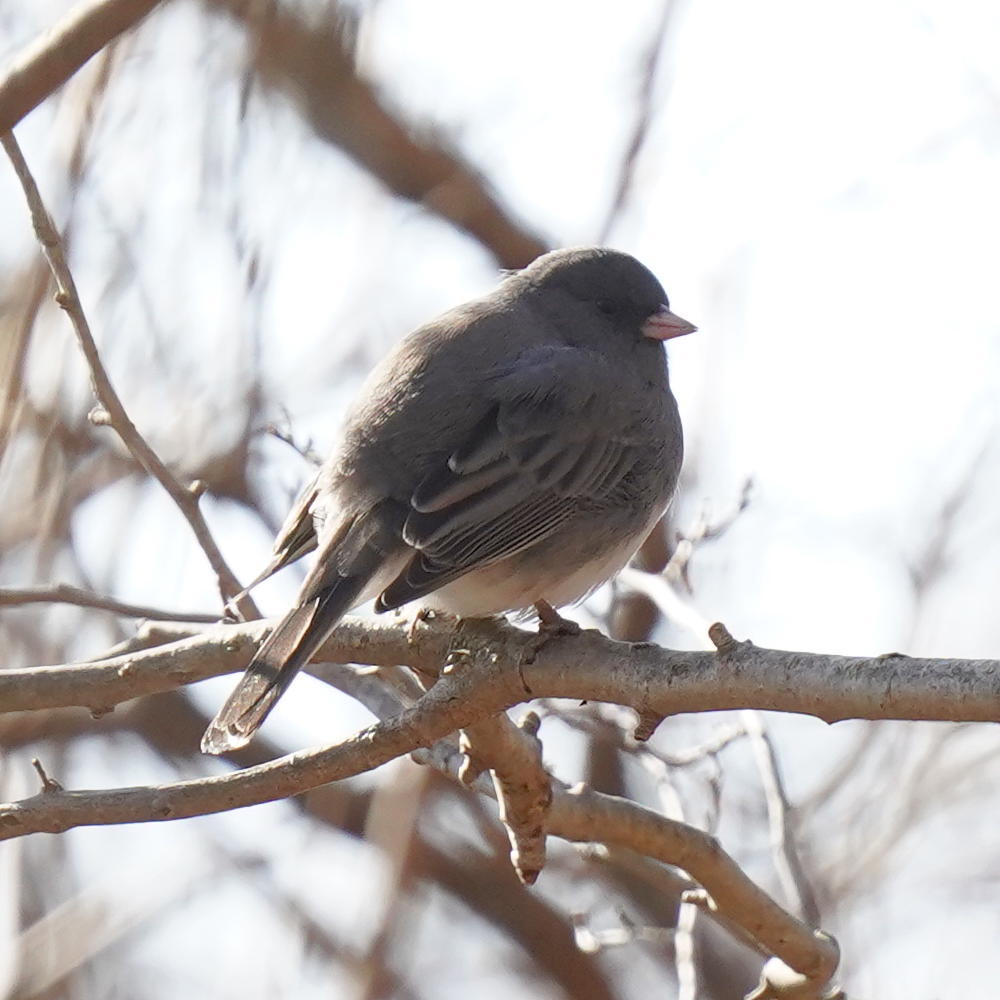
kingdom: Animalia
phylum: Chordata
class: Aves
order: Passeriformes
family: Passerellidae
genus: Junco
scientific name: Junco hyemalis
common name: Dark-eyed junco
